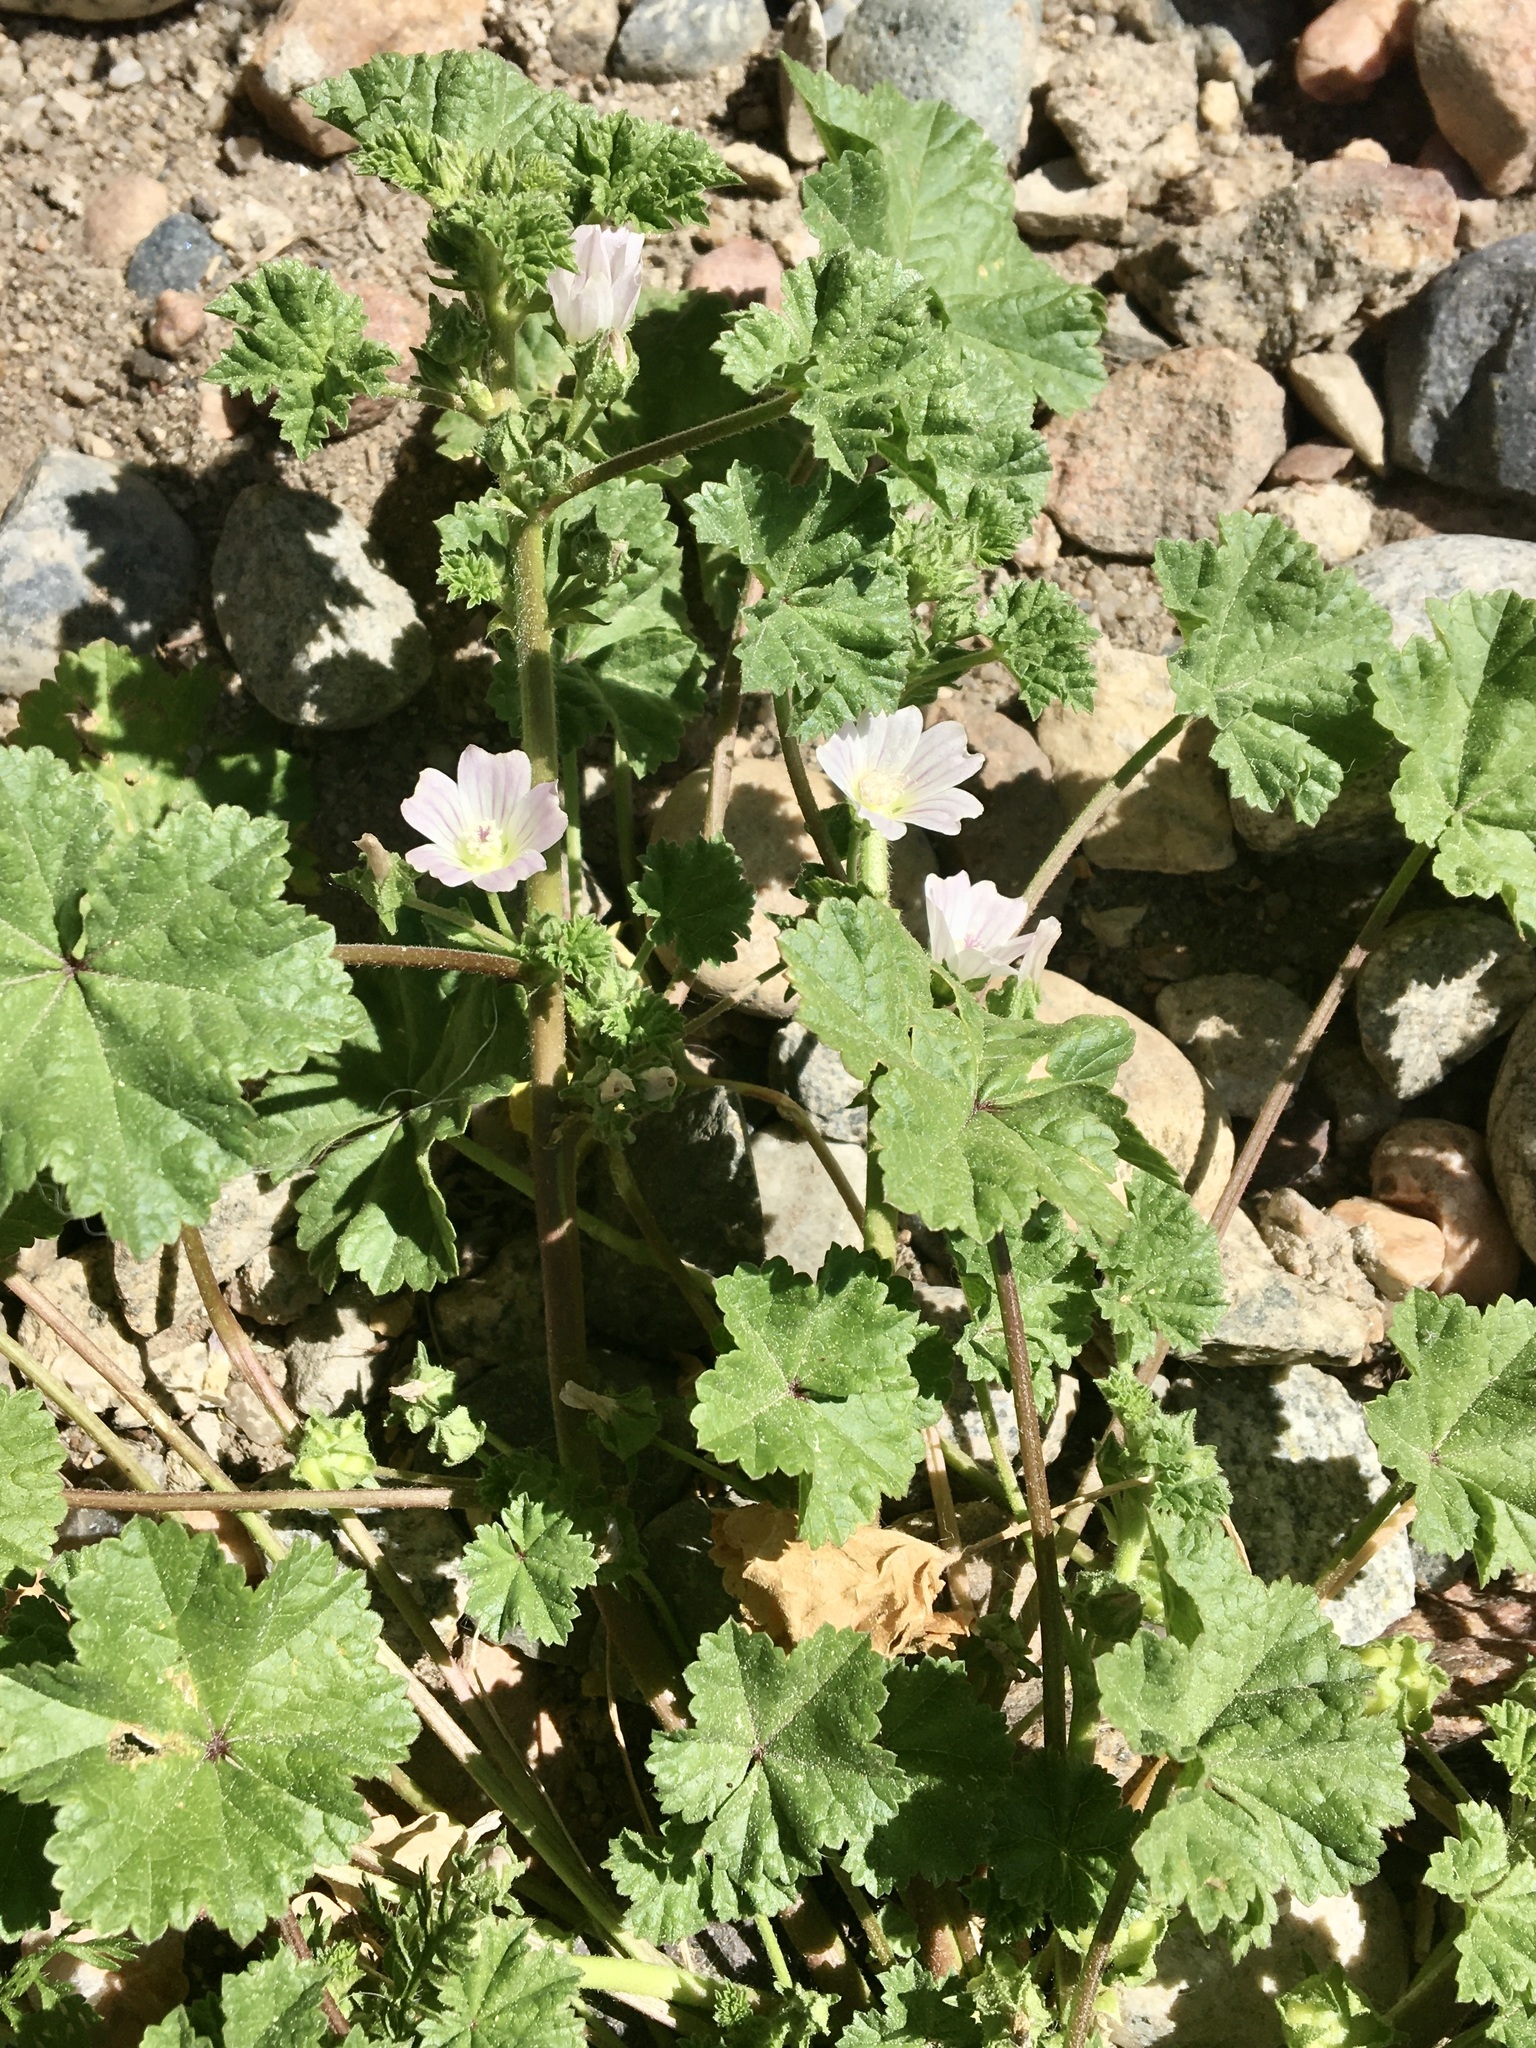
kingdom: Plantae
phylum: Tracheophyta
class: Magnoliopsida
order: Malvales
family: Malvaceae
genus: Malva
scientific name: Malva neglecta
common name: Common mallow
